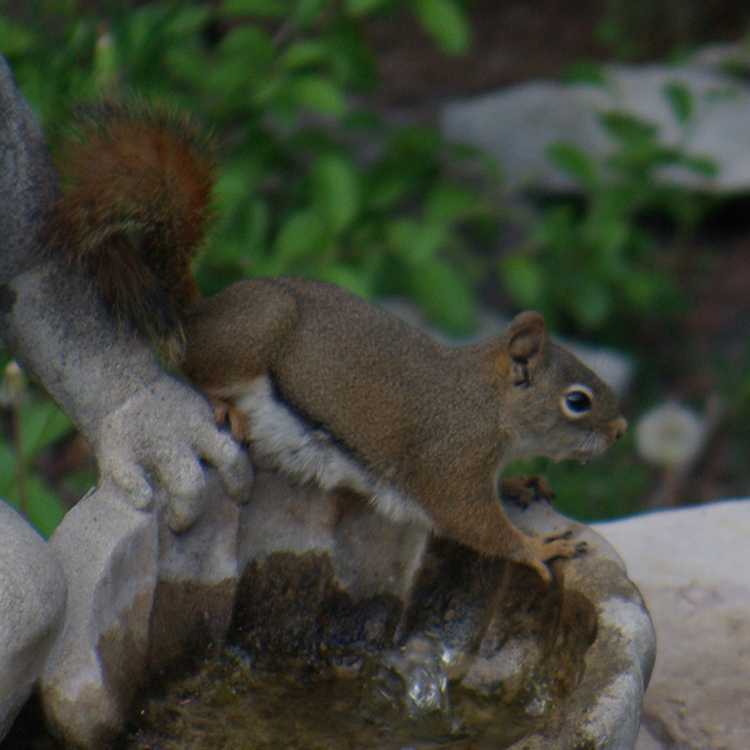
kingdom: Animalia
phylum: Chordata
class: Mammalia
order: Rodentia
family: Sciuridae
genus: Tamiasciurus
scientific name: Tamiasciurus hudsonicus
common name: Red squirrel
